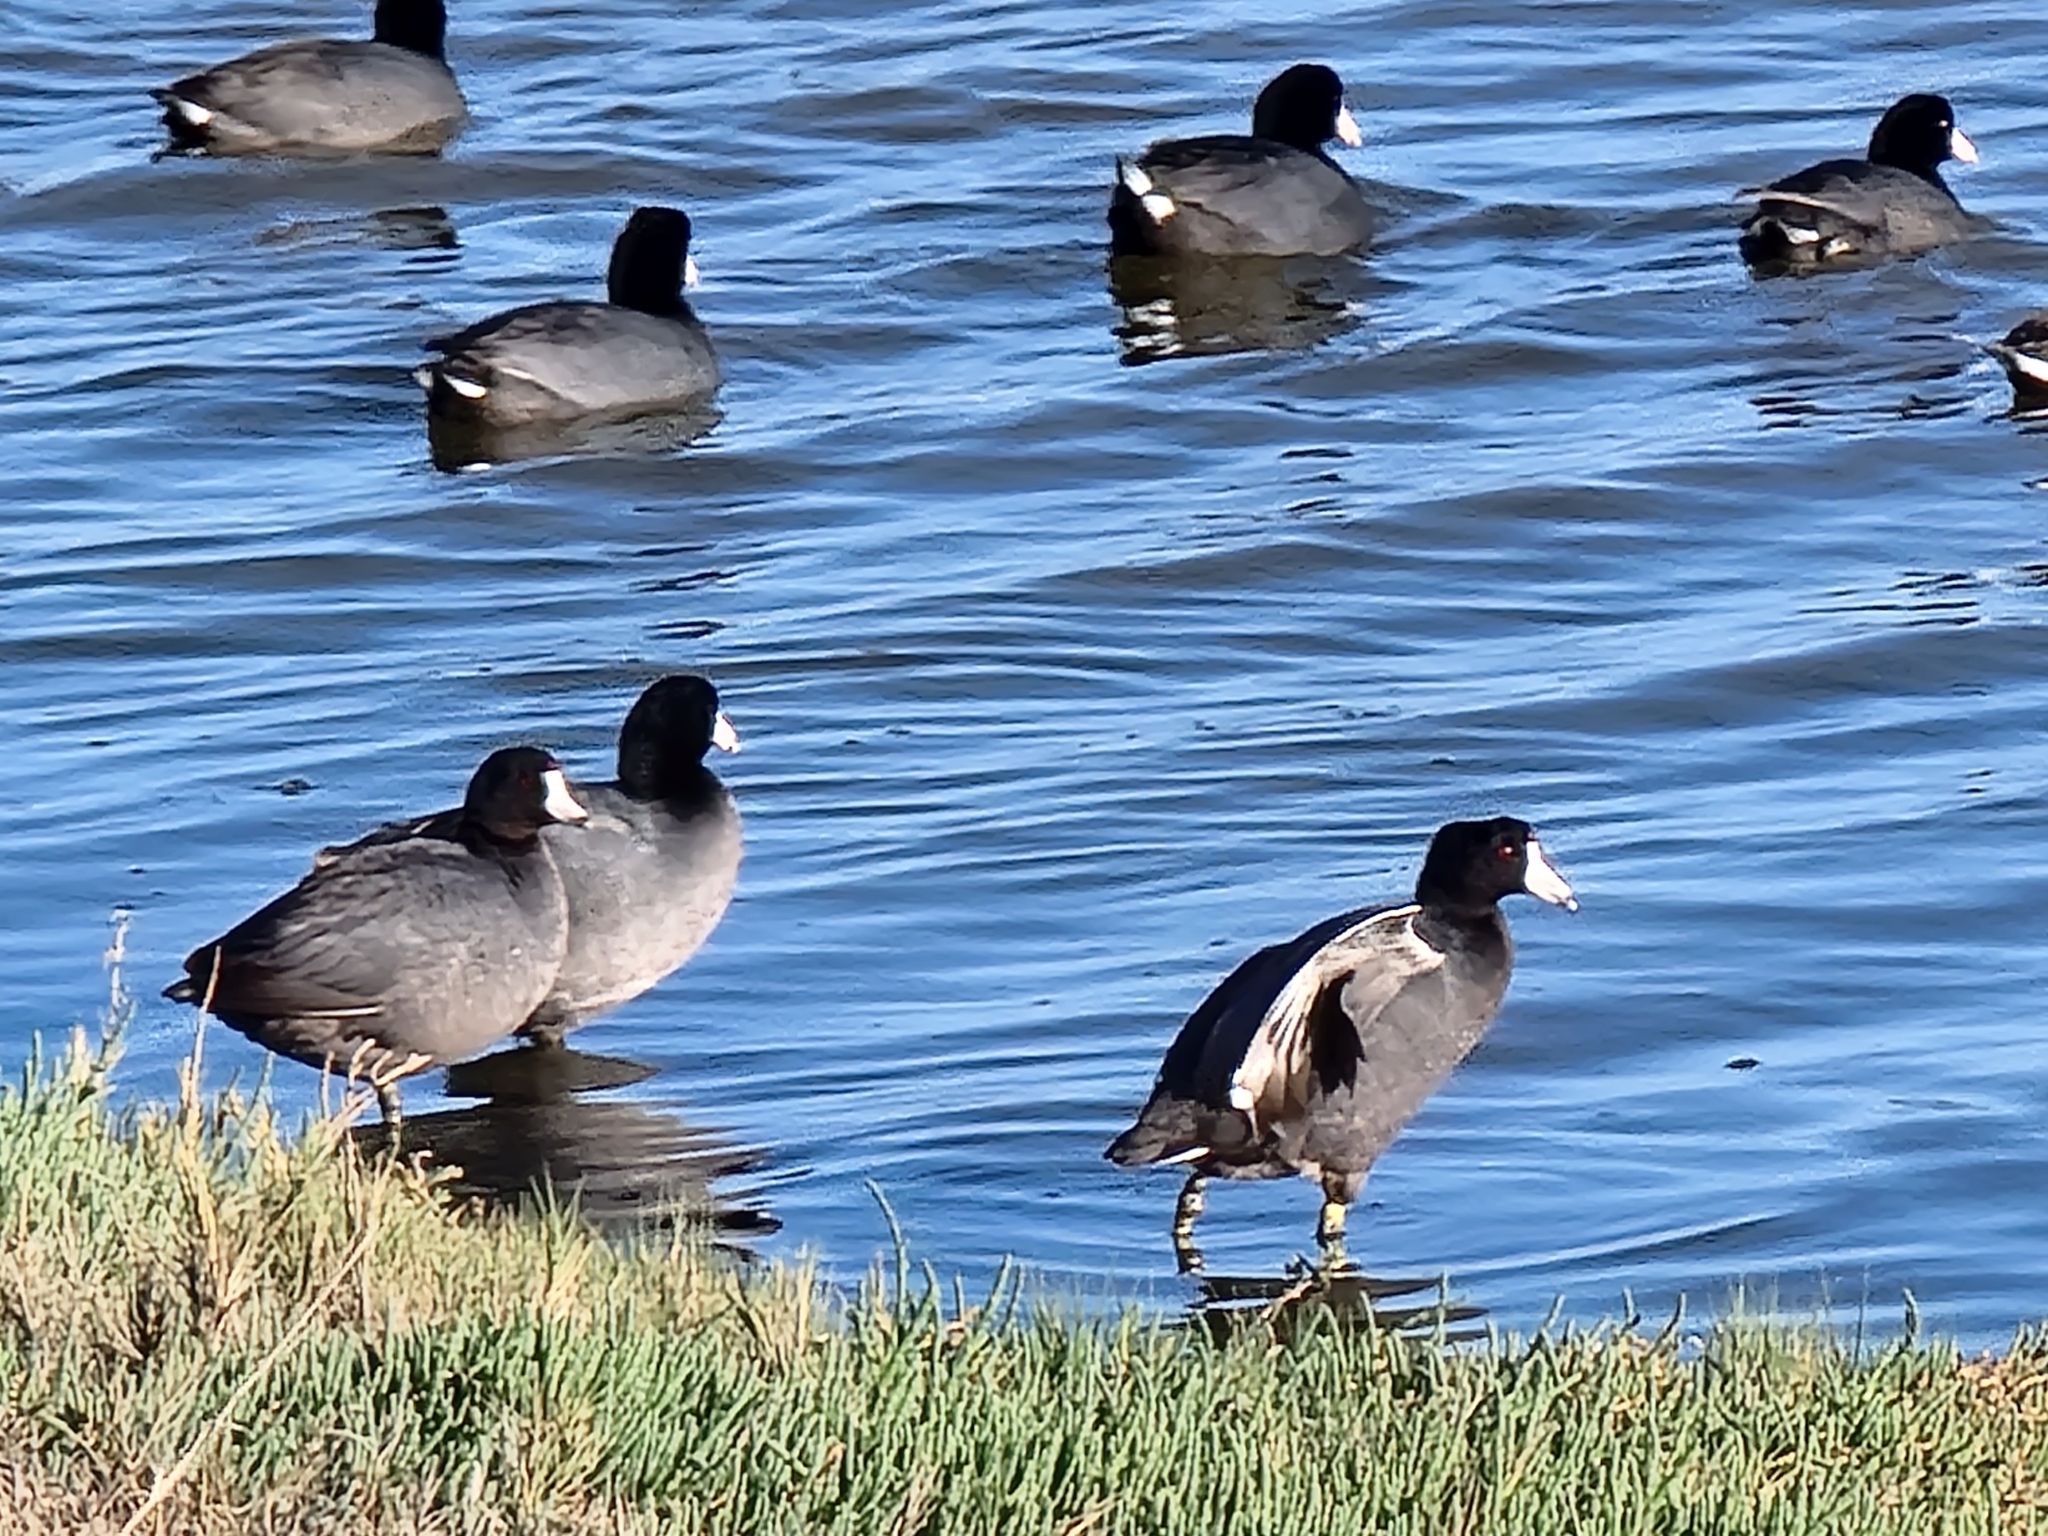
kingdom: Animalia
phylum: Chordata
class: Aves
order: Gruiformes
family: Rallidae
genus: Fulica
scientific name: Fulica americana
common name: American coot
